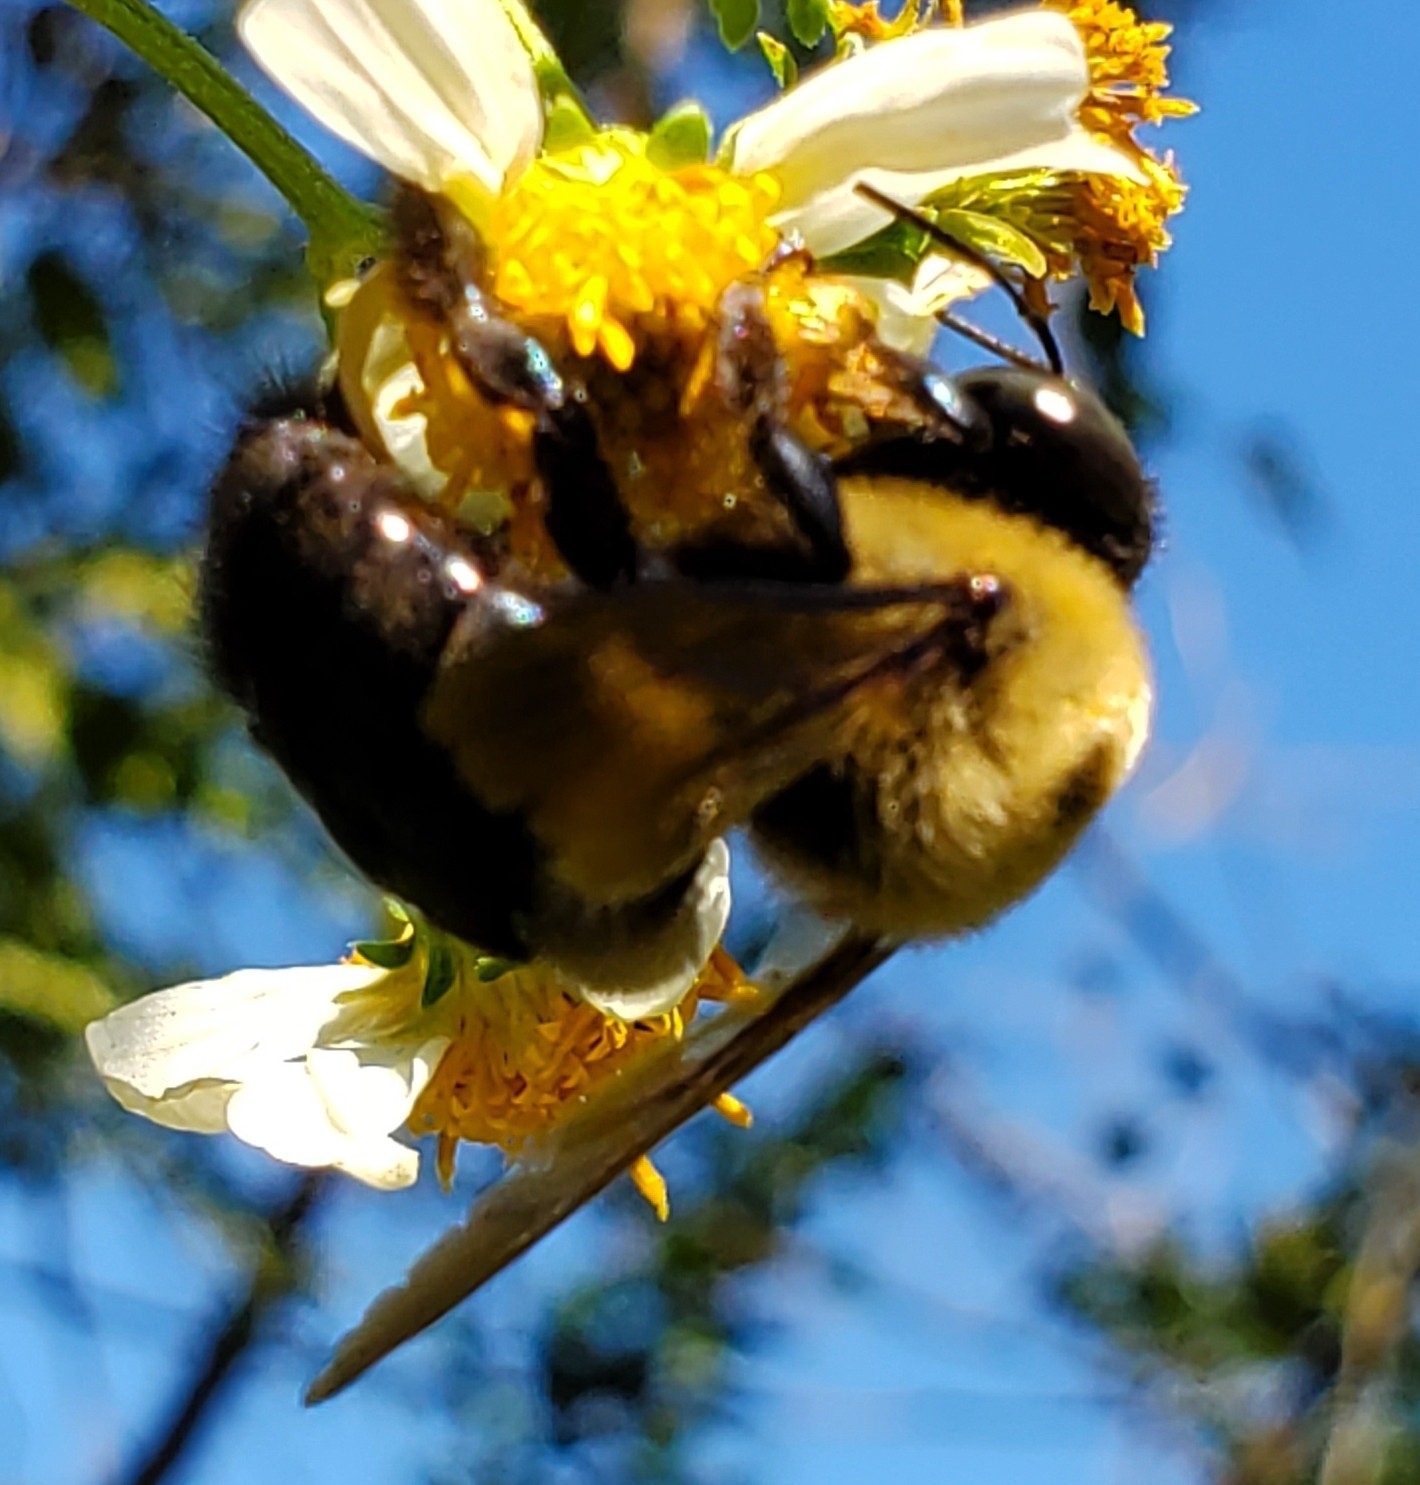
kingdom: Animalia
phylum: Arthropoda
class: Insecta
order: Hymenoptera
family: Apidae
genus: Xylocopa
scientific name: Xylocopa virginica
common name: Carpenter bee
